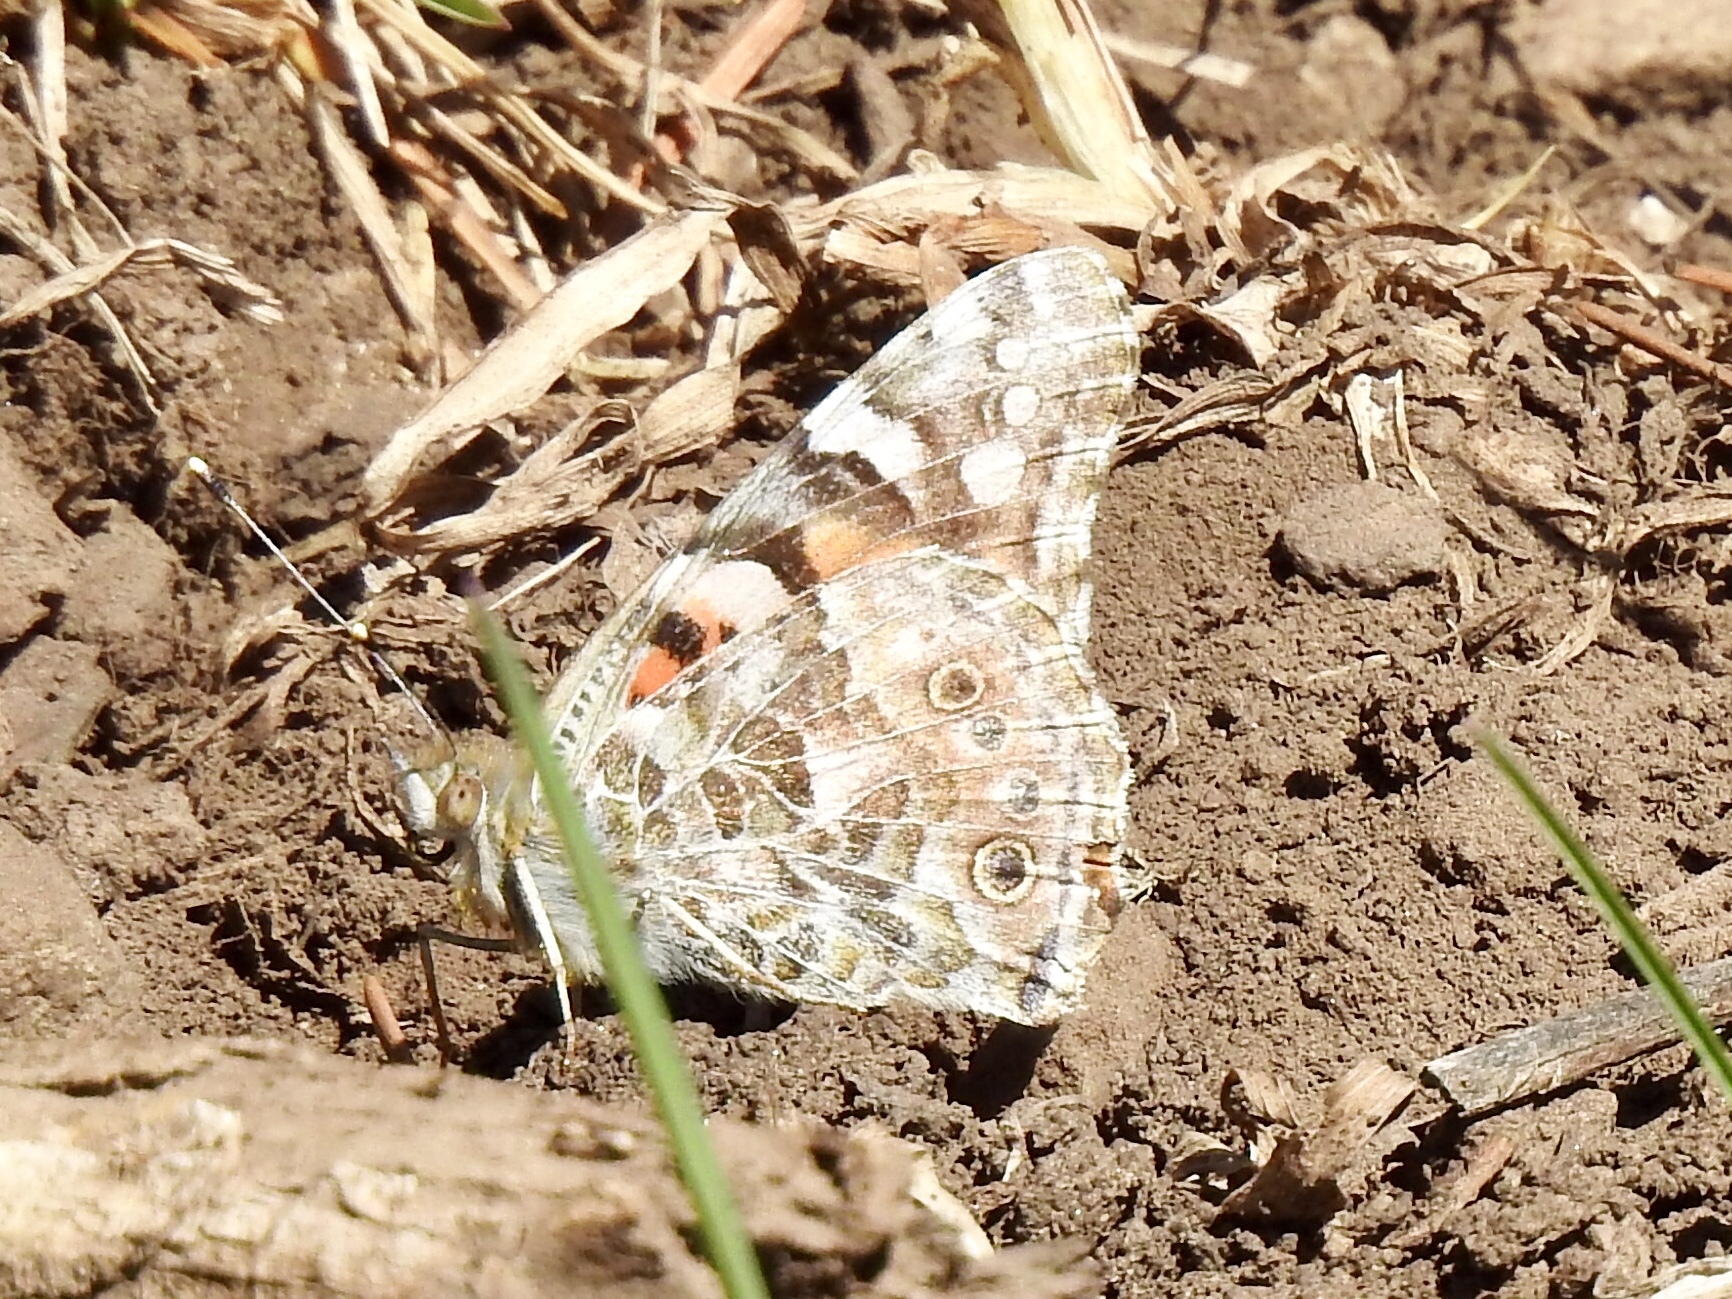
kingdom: Animalia
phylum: Arthropoda
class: Insecta
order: Lepidoptera
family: Nymphalidae
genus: Vanessa
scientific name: Vanessa cardui
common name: Painted lady
